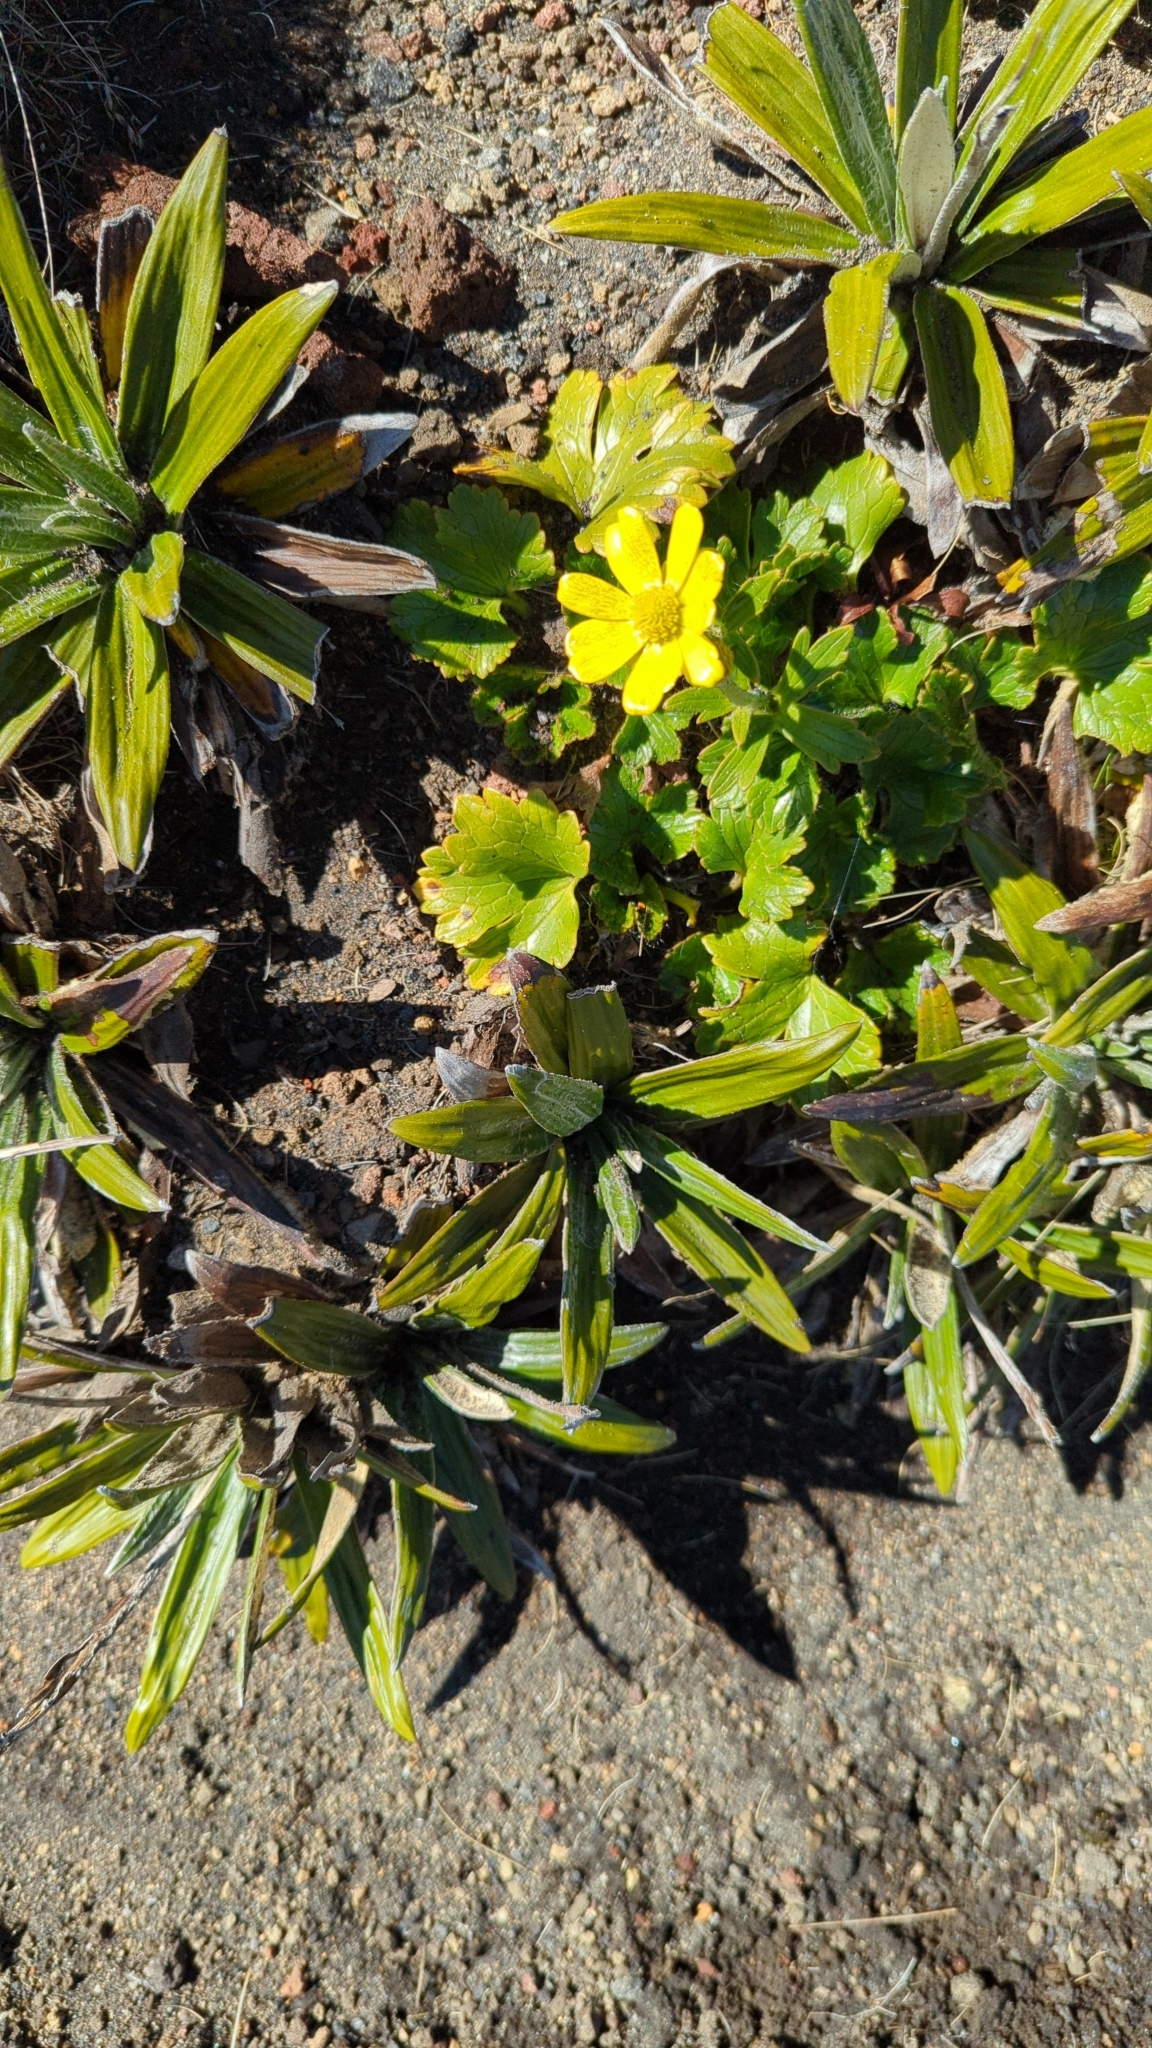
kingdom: Plantae
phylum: Tracheophyta
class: Magnoliopsida
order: Ranunculales
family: Ranunculaceae
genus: Ranunculus
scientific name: Ranunculus nivicola
